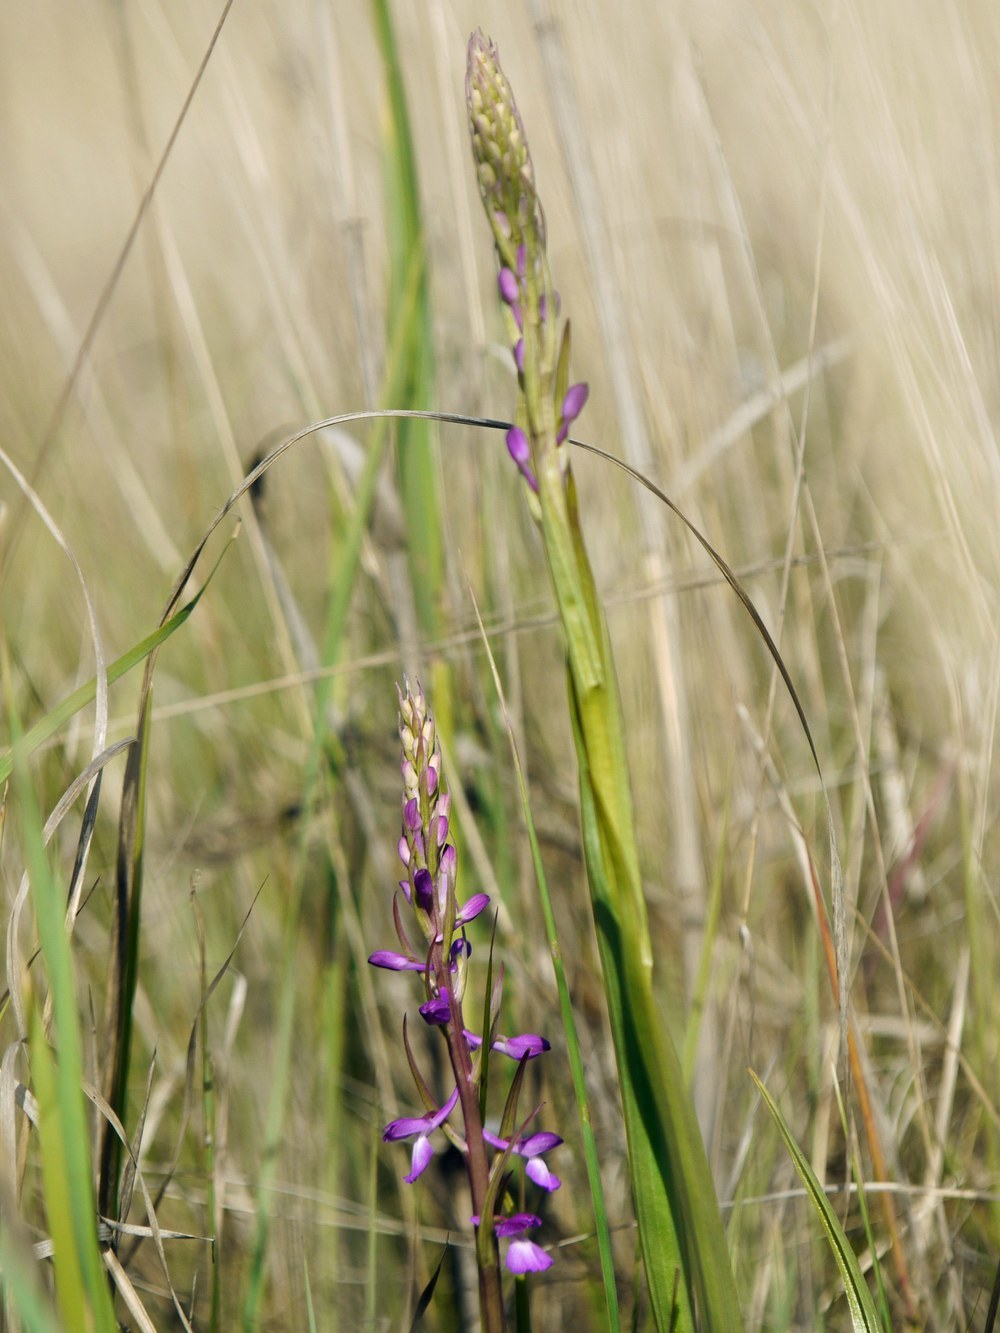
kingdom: Plantae
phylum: Tracheophyta
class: Liliopsida
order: Asparagales
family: Orchidaceae
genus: Anacamptis
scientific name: Anacamptis palustris
